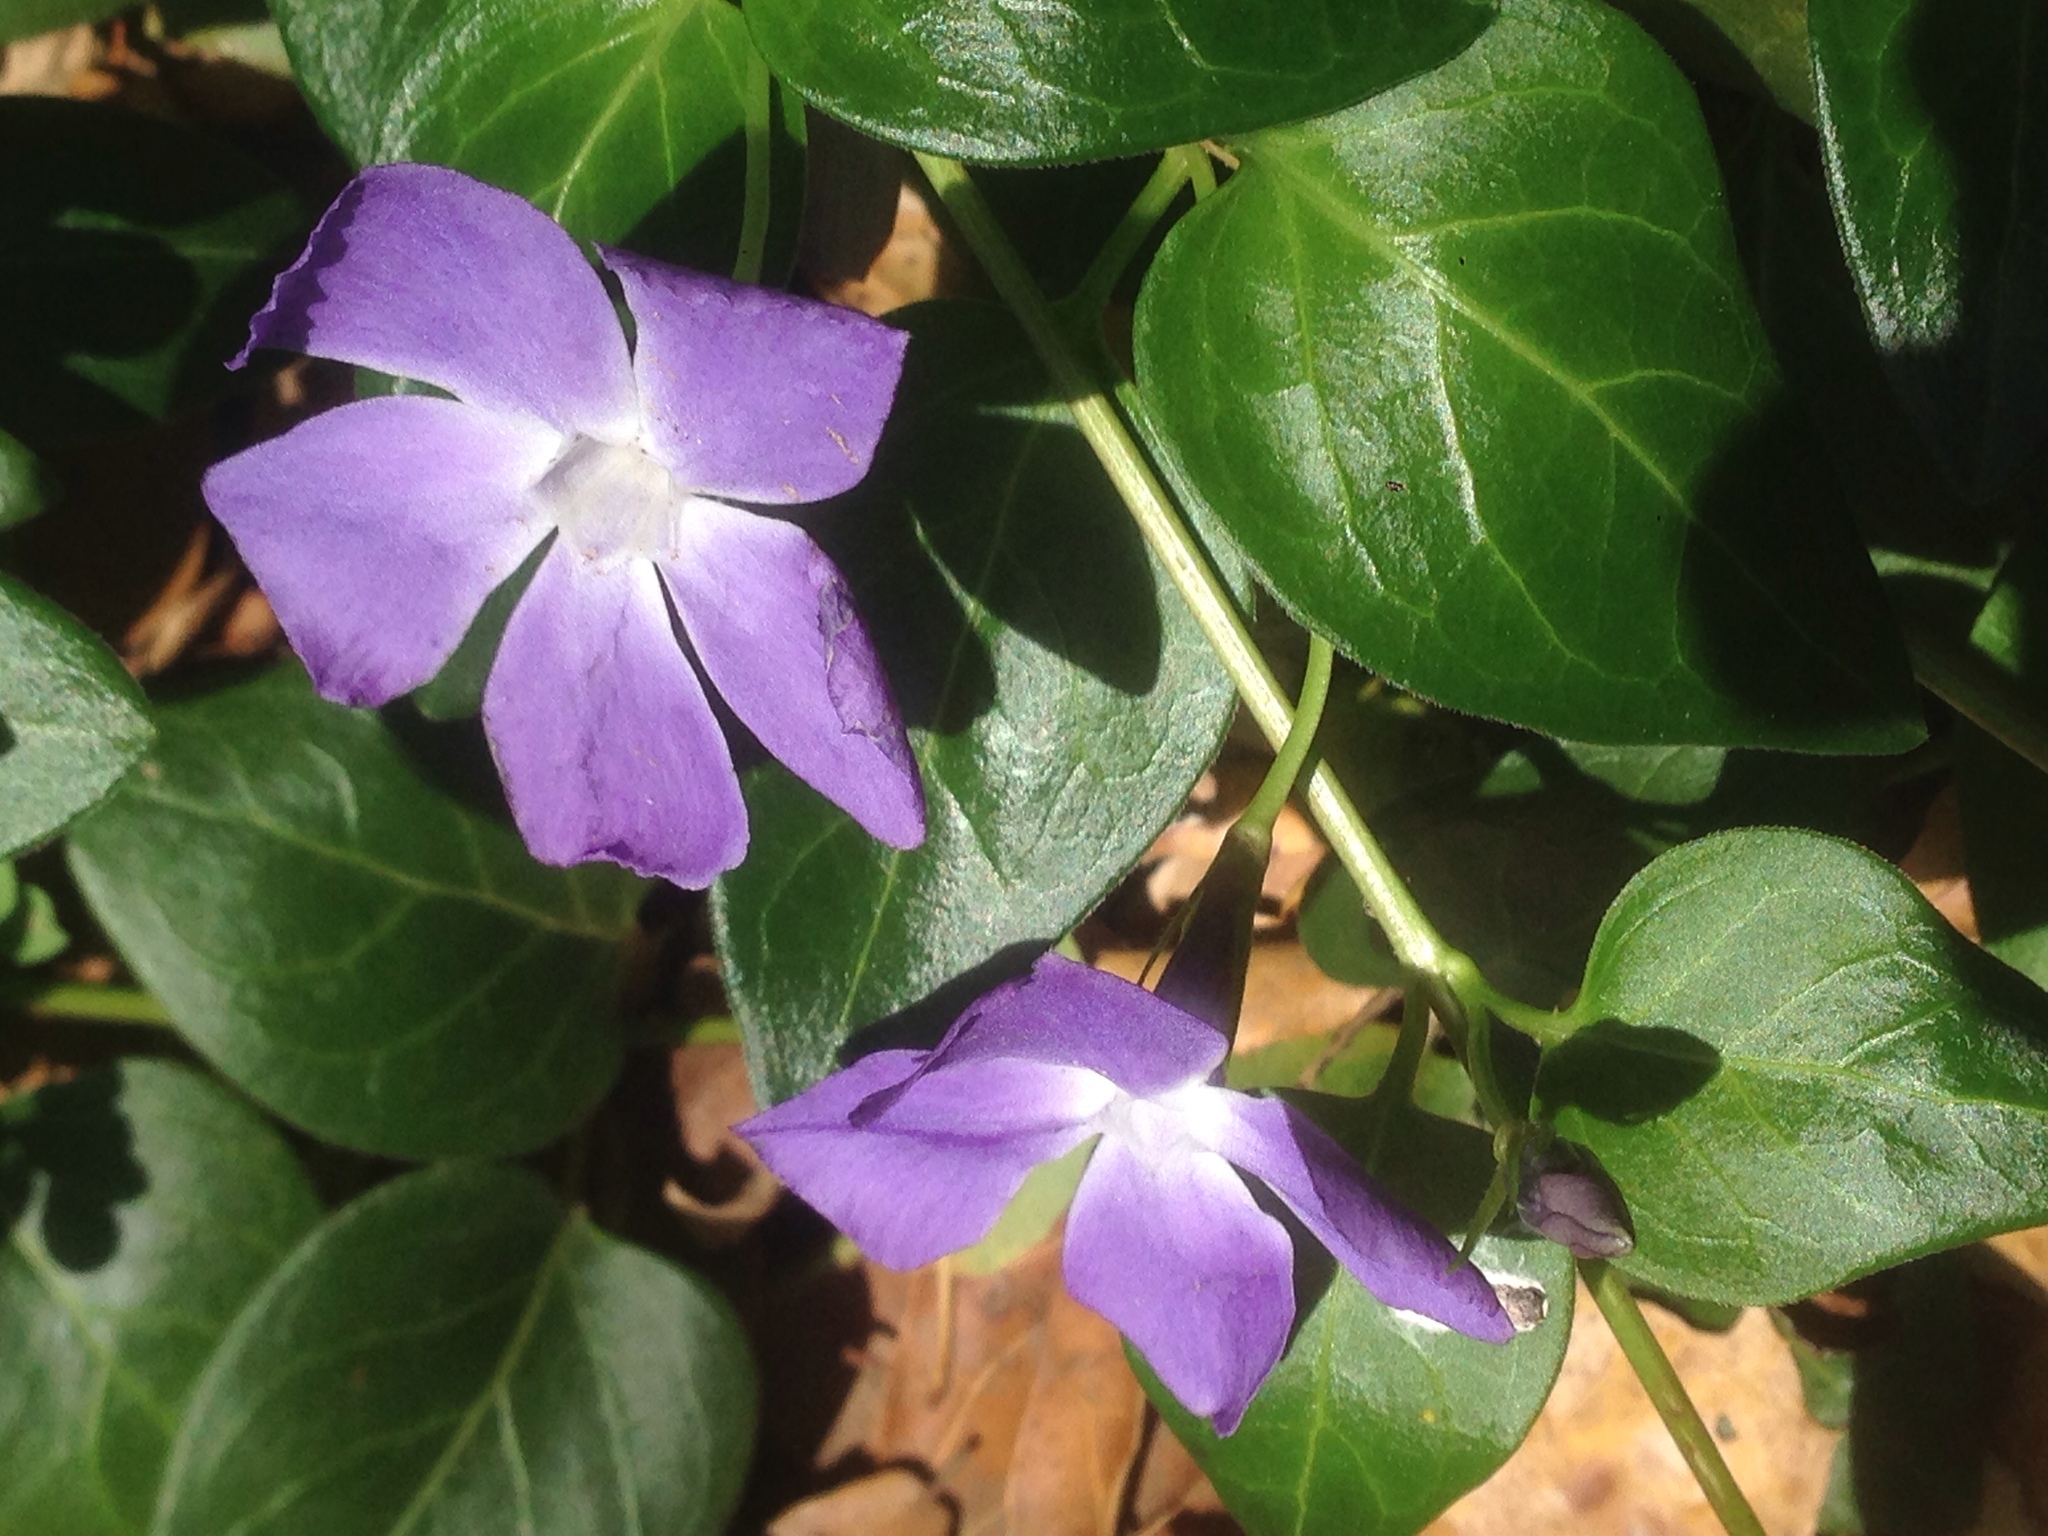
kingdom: Plantae
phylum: Tracheophyta
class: Magnoliopsida
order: Gentianales
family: Apocynaceae
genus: Vinca
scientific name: Vinca major
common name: Greater periwinkle
